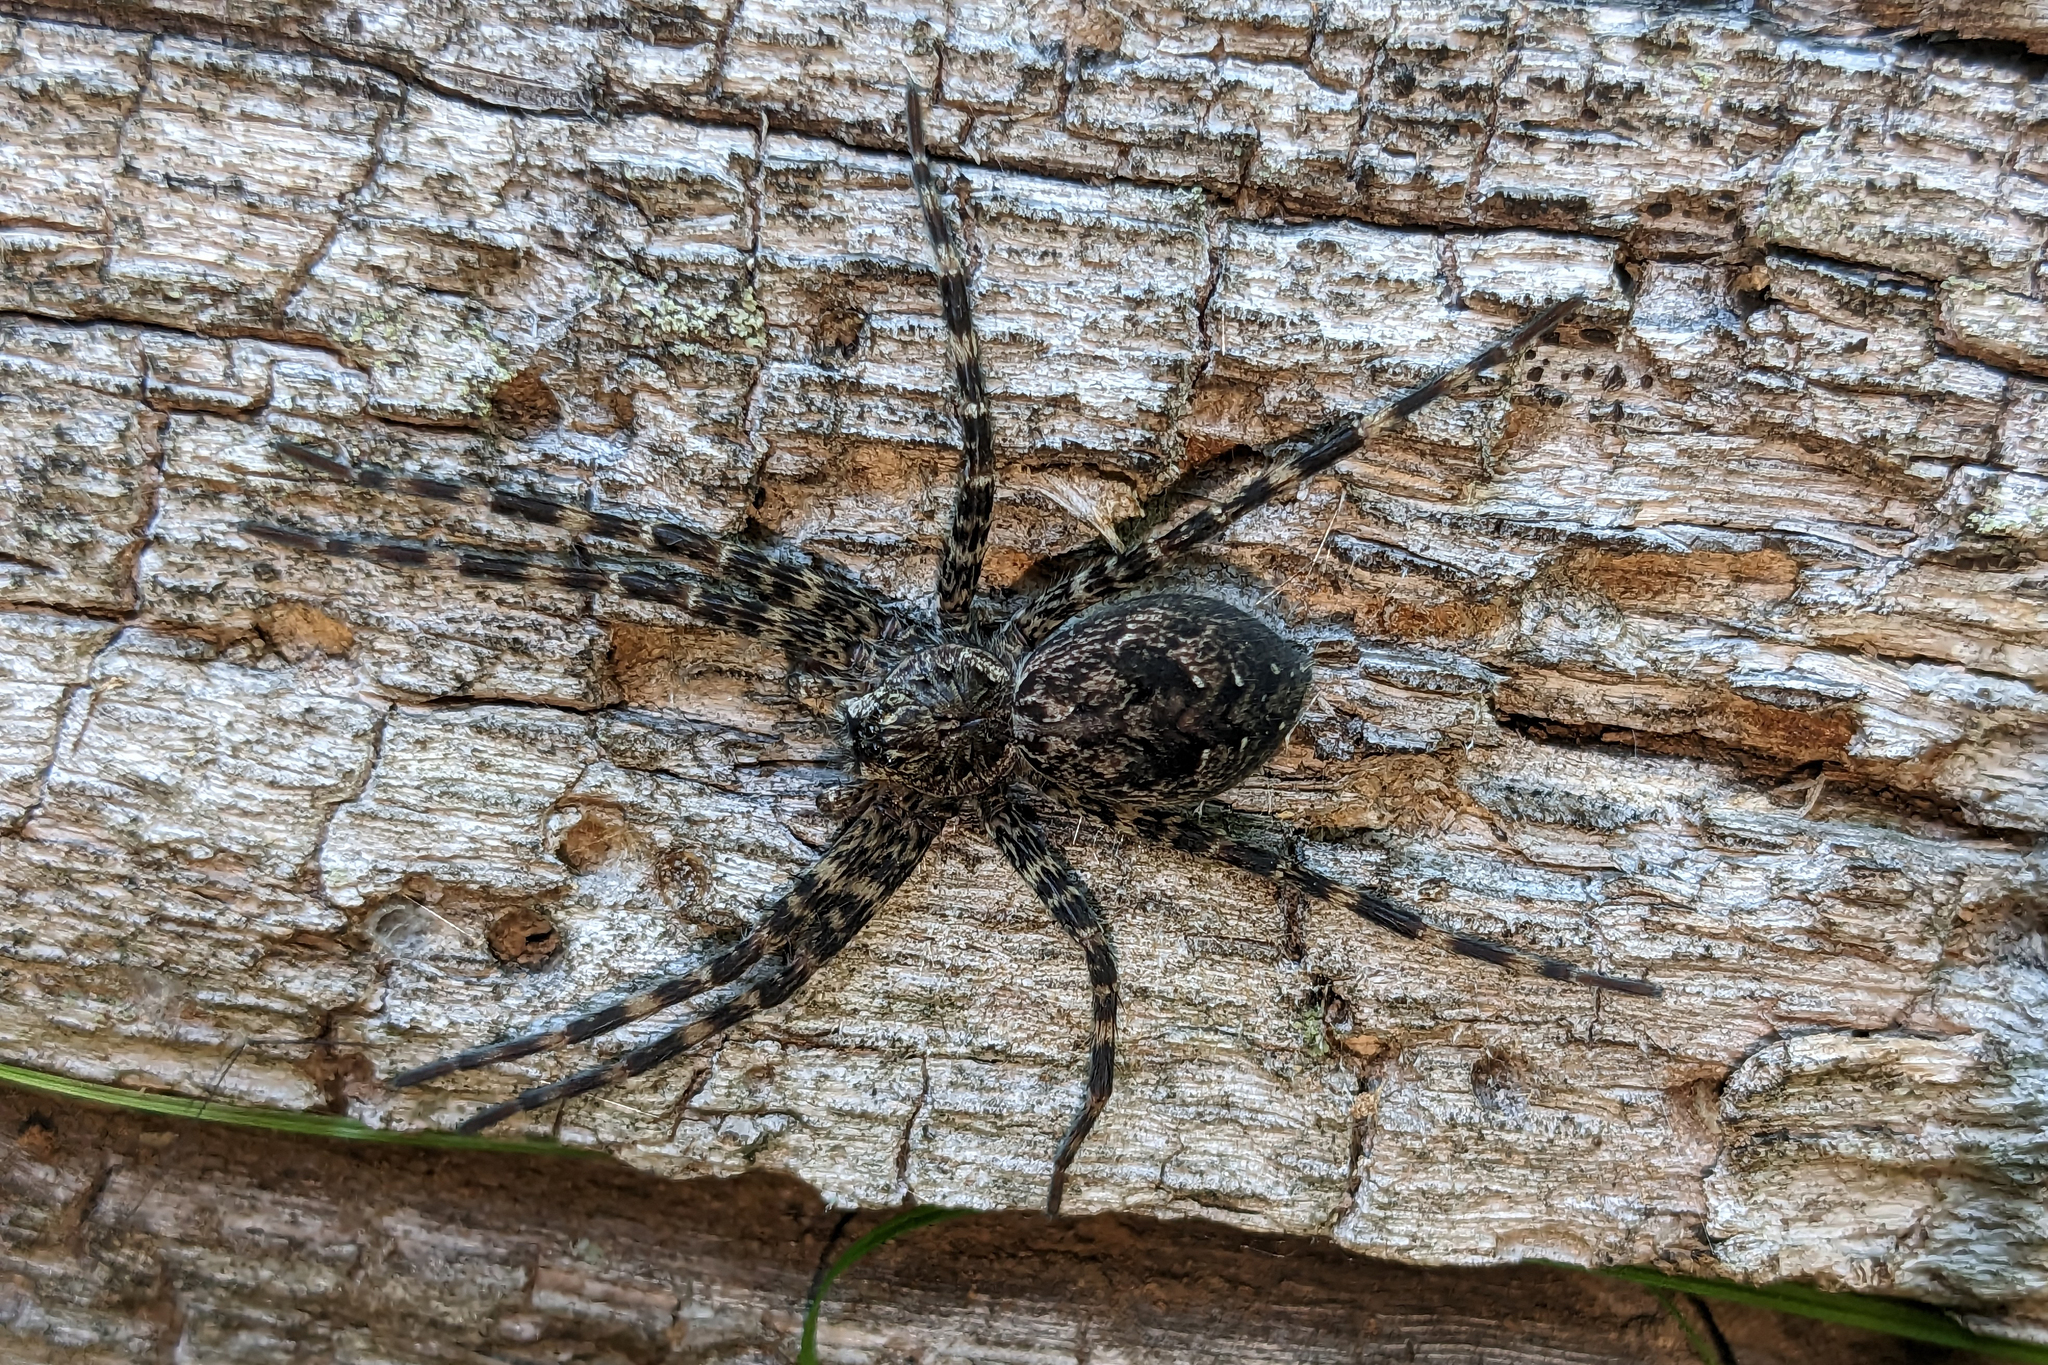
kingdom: Animalia
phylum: Arthropoda
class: Arachnida
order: Araneae
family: Pisauridae
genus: Dolomedes
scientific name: Dolomedes tenebrosus
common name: Dark fishing spider
